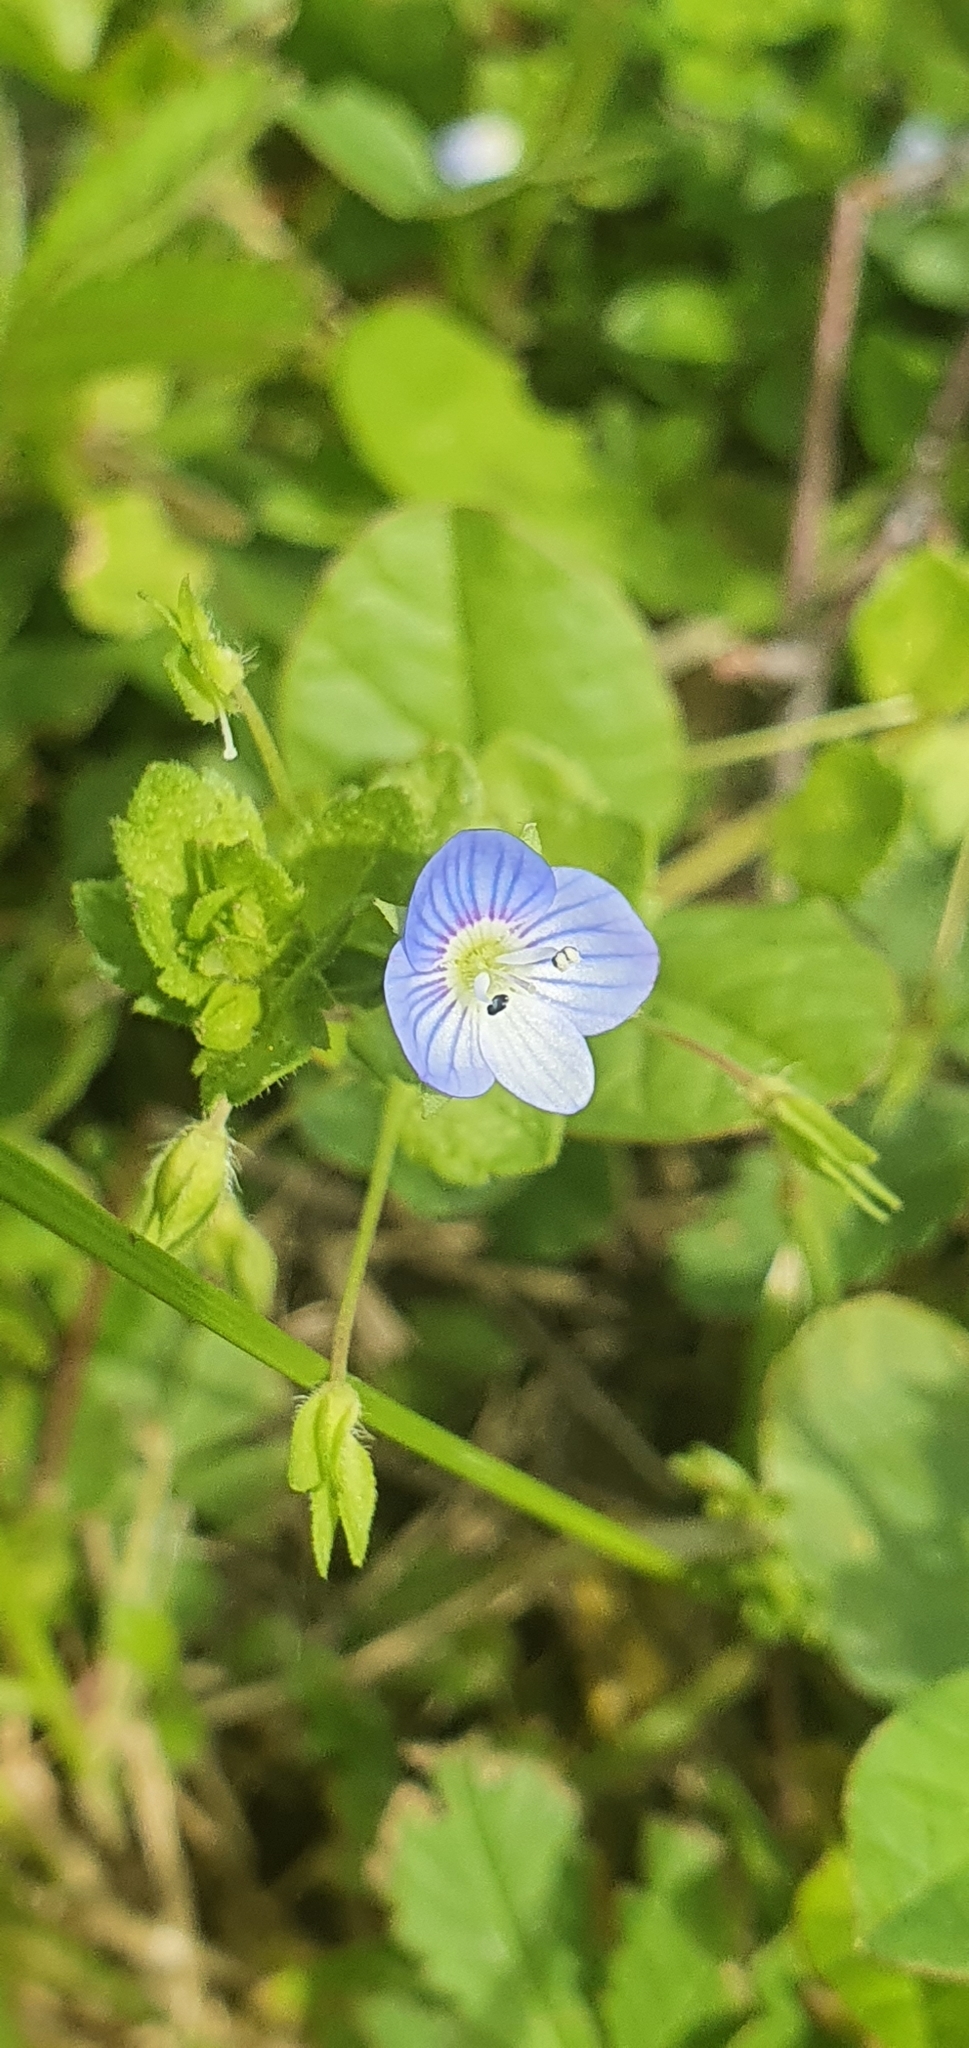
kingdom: Plantae
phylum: Tracheophyta
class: Magnoliopsida
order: Lamiales
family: Plantaginaceae
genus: Veronica
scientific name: Veronica persica
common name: Common field-speedwell
